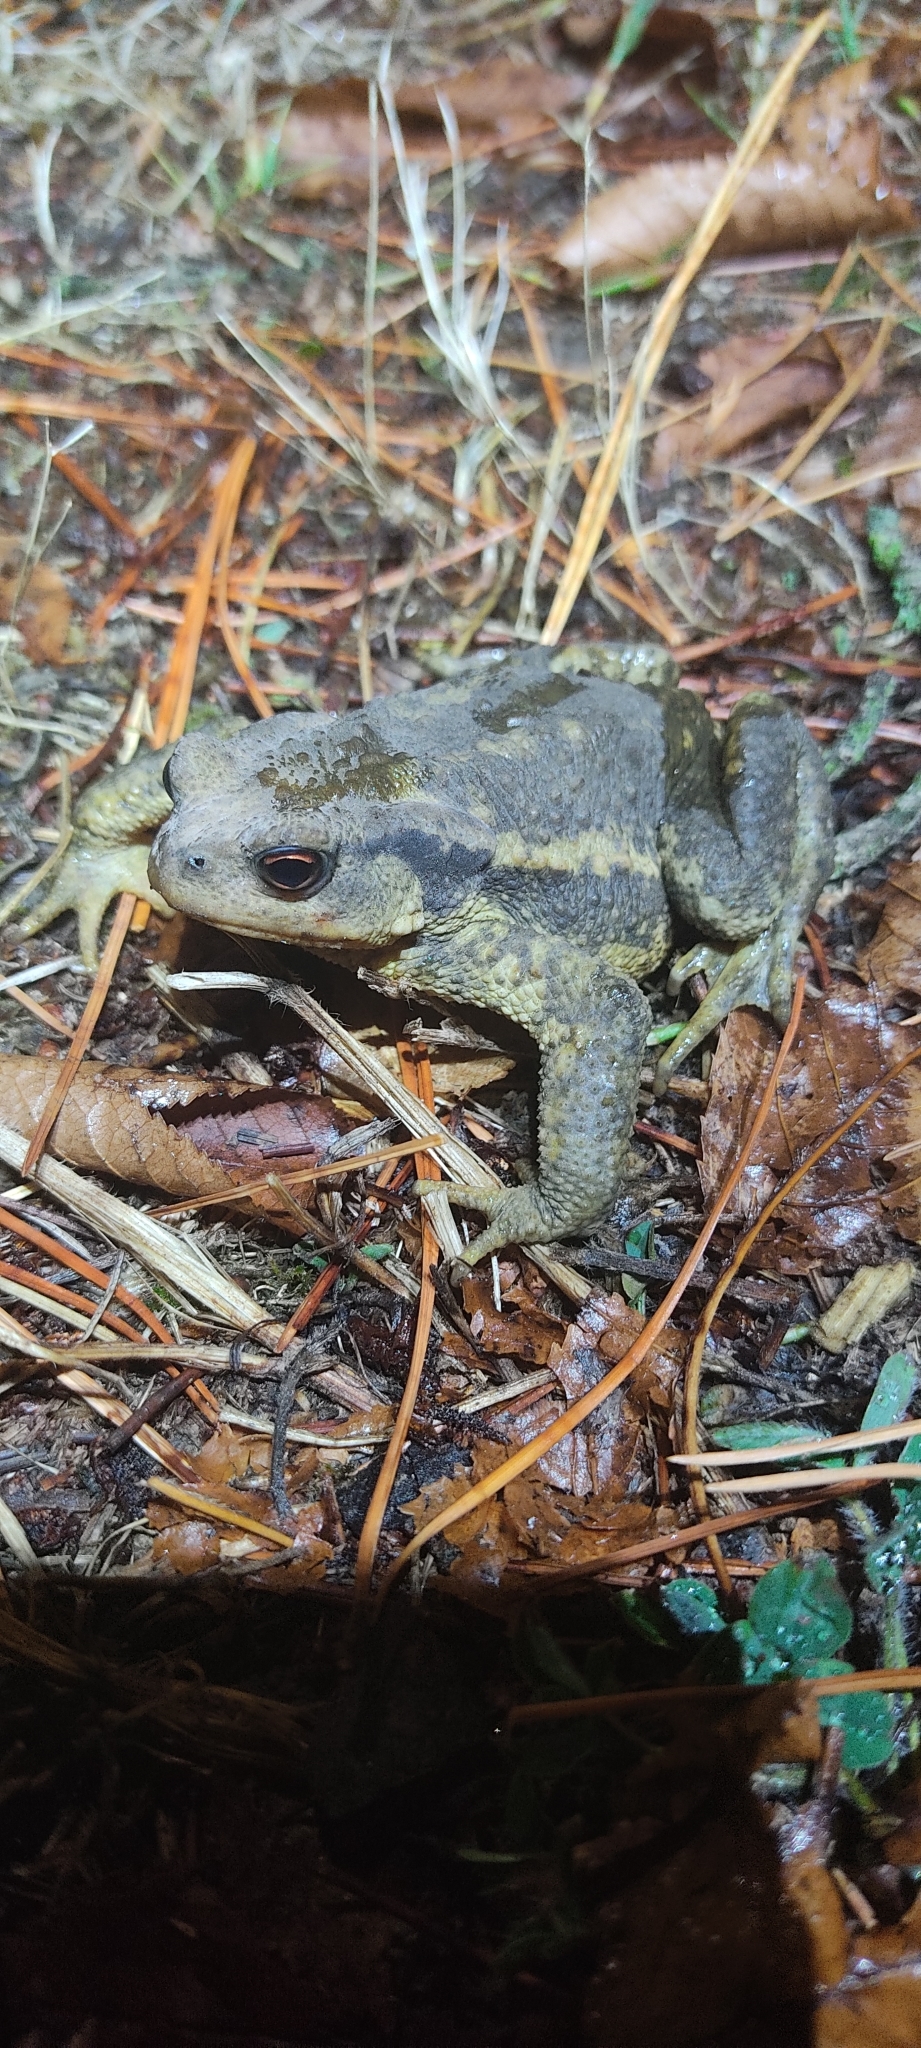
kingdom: Animalia
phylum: Chordata
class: Amphibia
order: Anura
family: Bufonidae
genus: Bufo
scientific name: Bufo spinosus
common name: Western common toad
